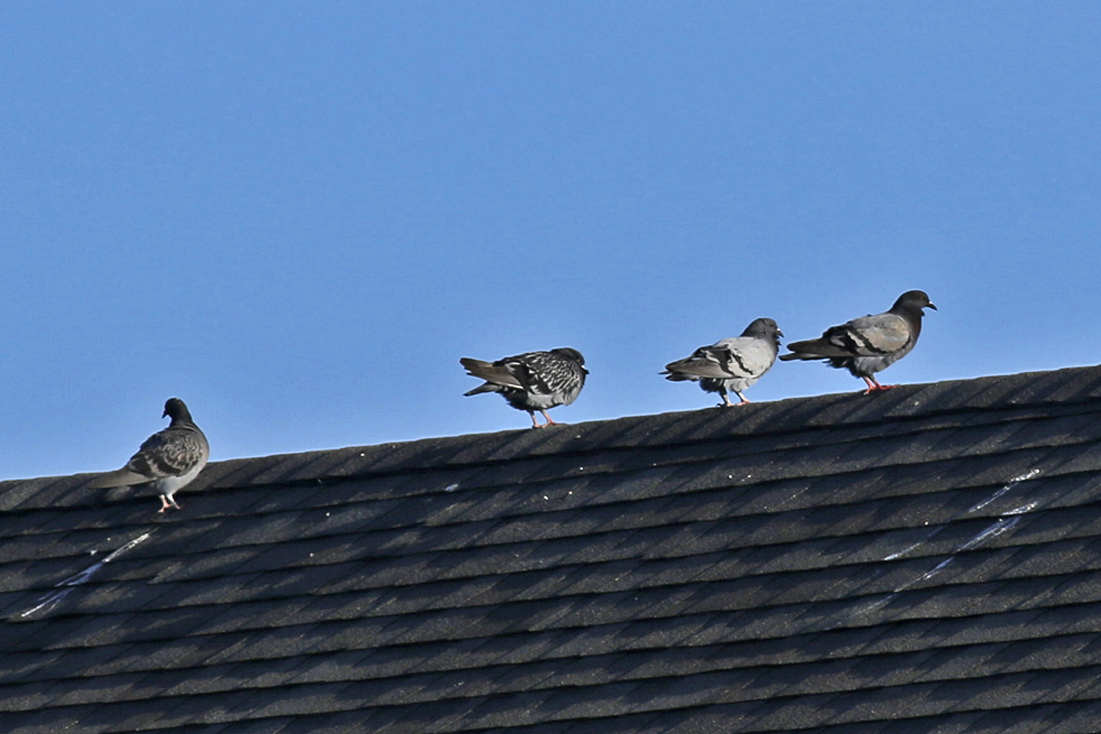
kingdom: Animalia
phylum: Chordata
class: Aves
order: Columbiformes
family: Columbidae
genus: Columba
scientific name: Columba livia
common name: Rock pigeon
